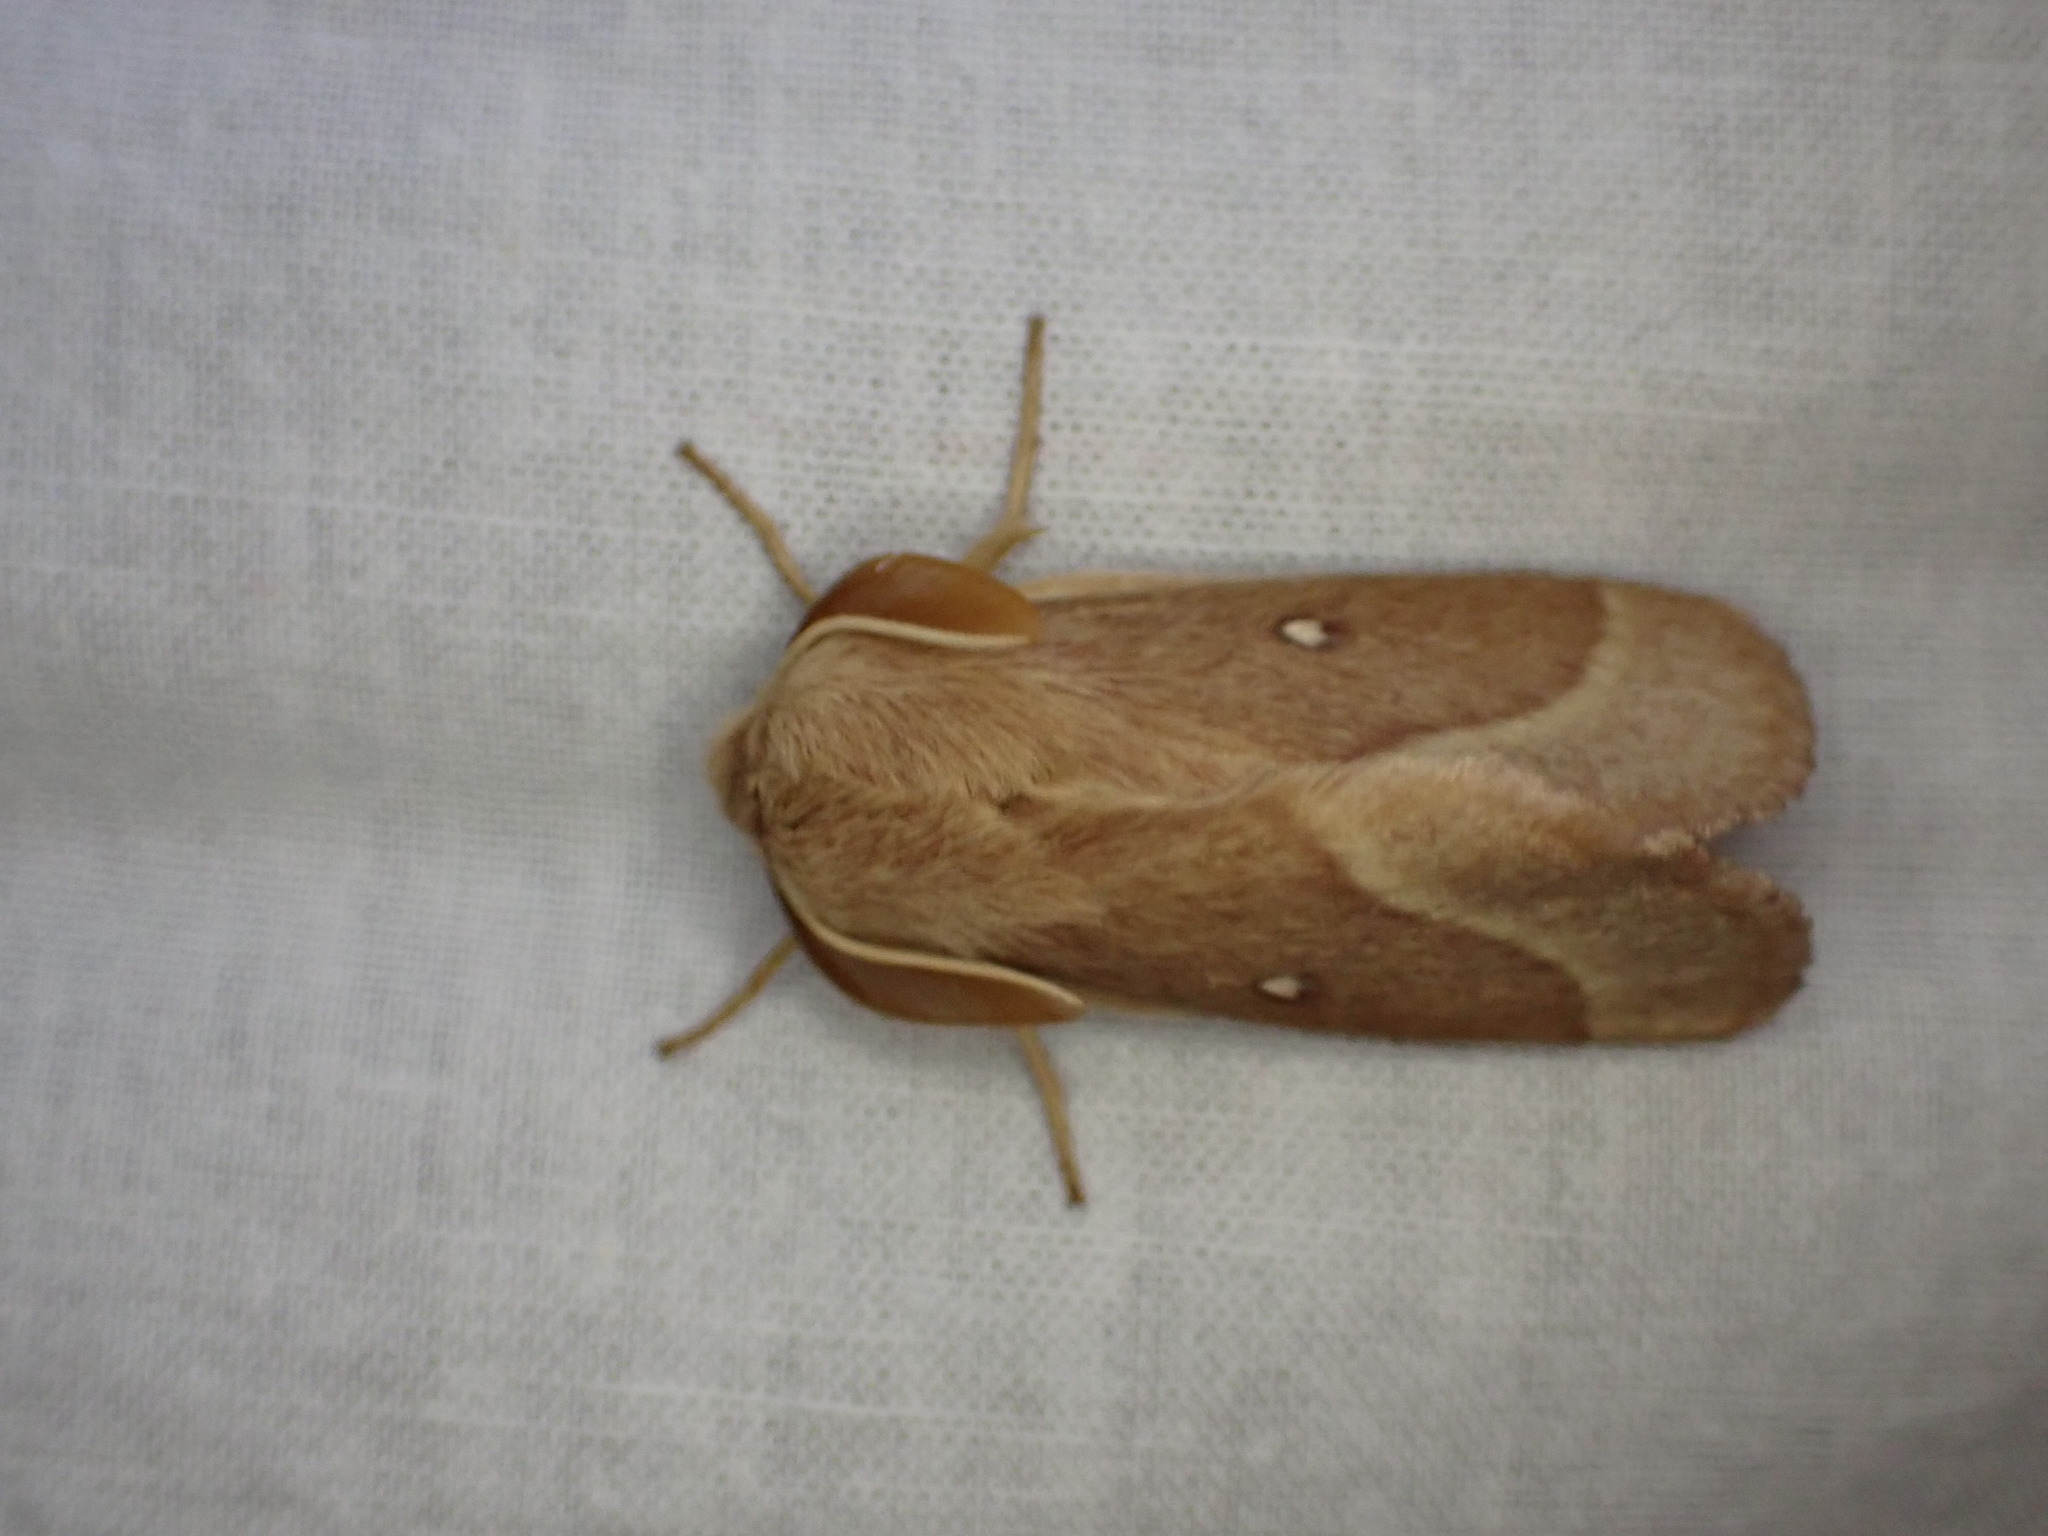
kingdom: Animalia
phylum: Arthropoda
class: Insecta
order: Lepidoptera
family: Lasiocampidae
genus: Lasiocampa
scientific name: Lasiocampa trifolii
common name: Grass eggar
